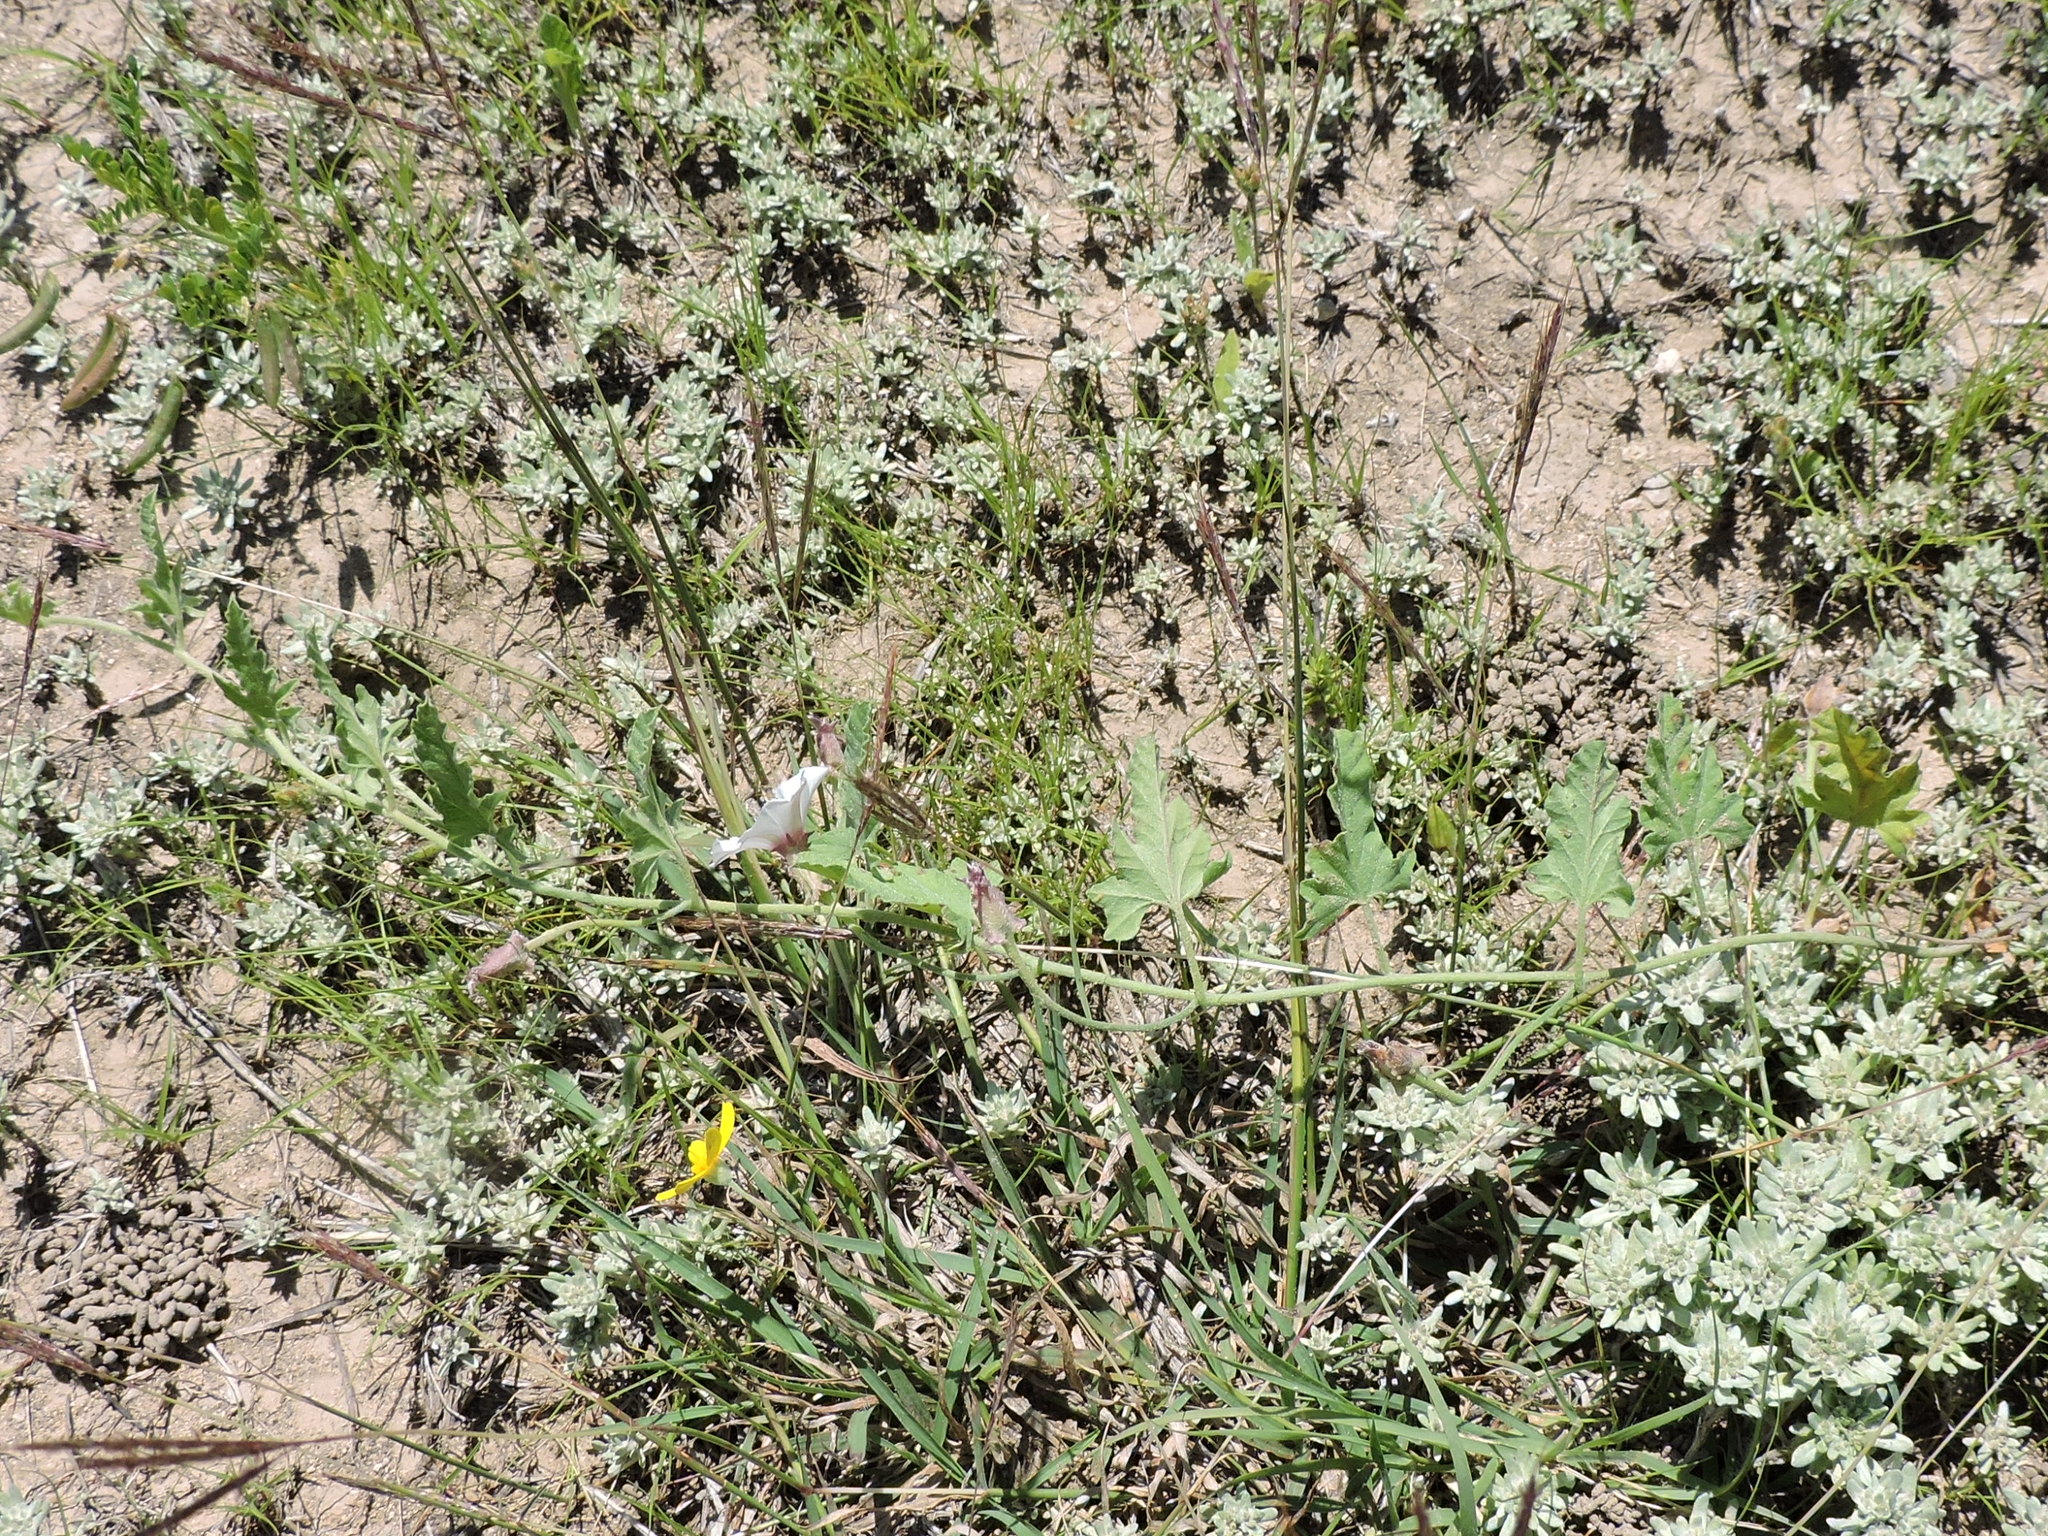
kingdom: Plantae
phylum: Tracheophyta
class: Magnoliopsida
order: Solanales
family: Convolvulaceae
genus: Convolvulus
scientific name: Convolvulus equitans
